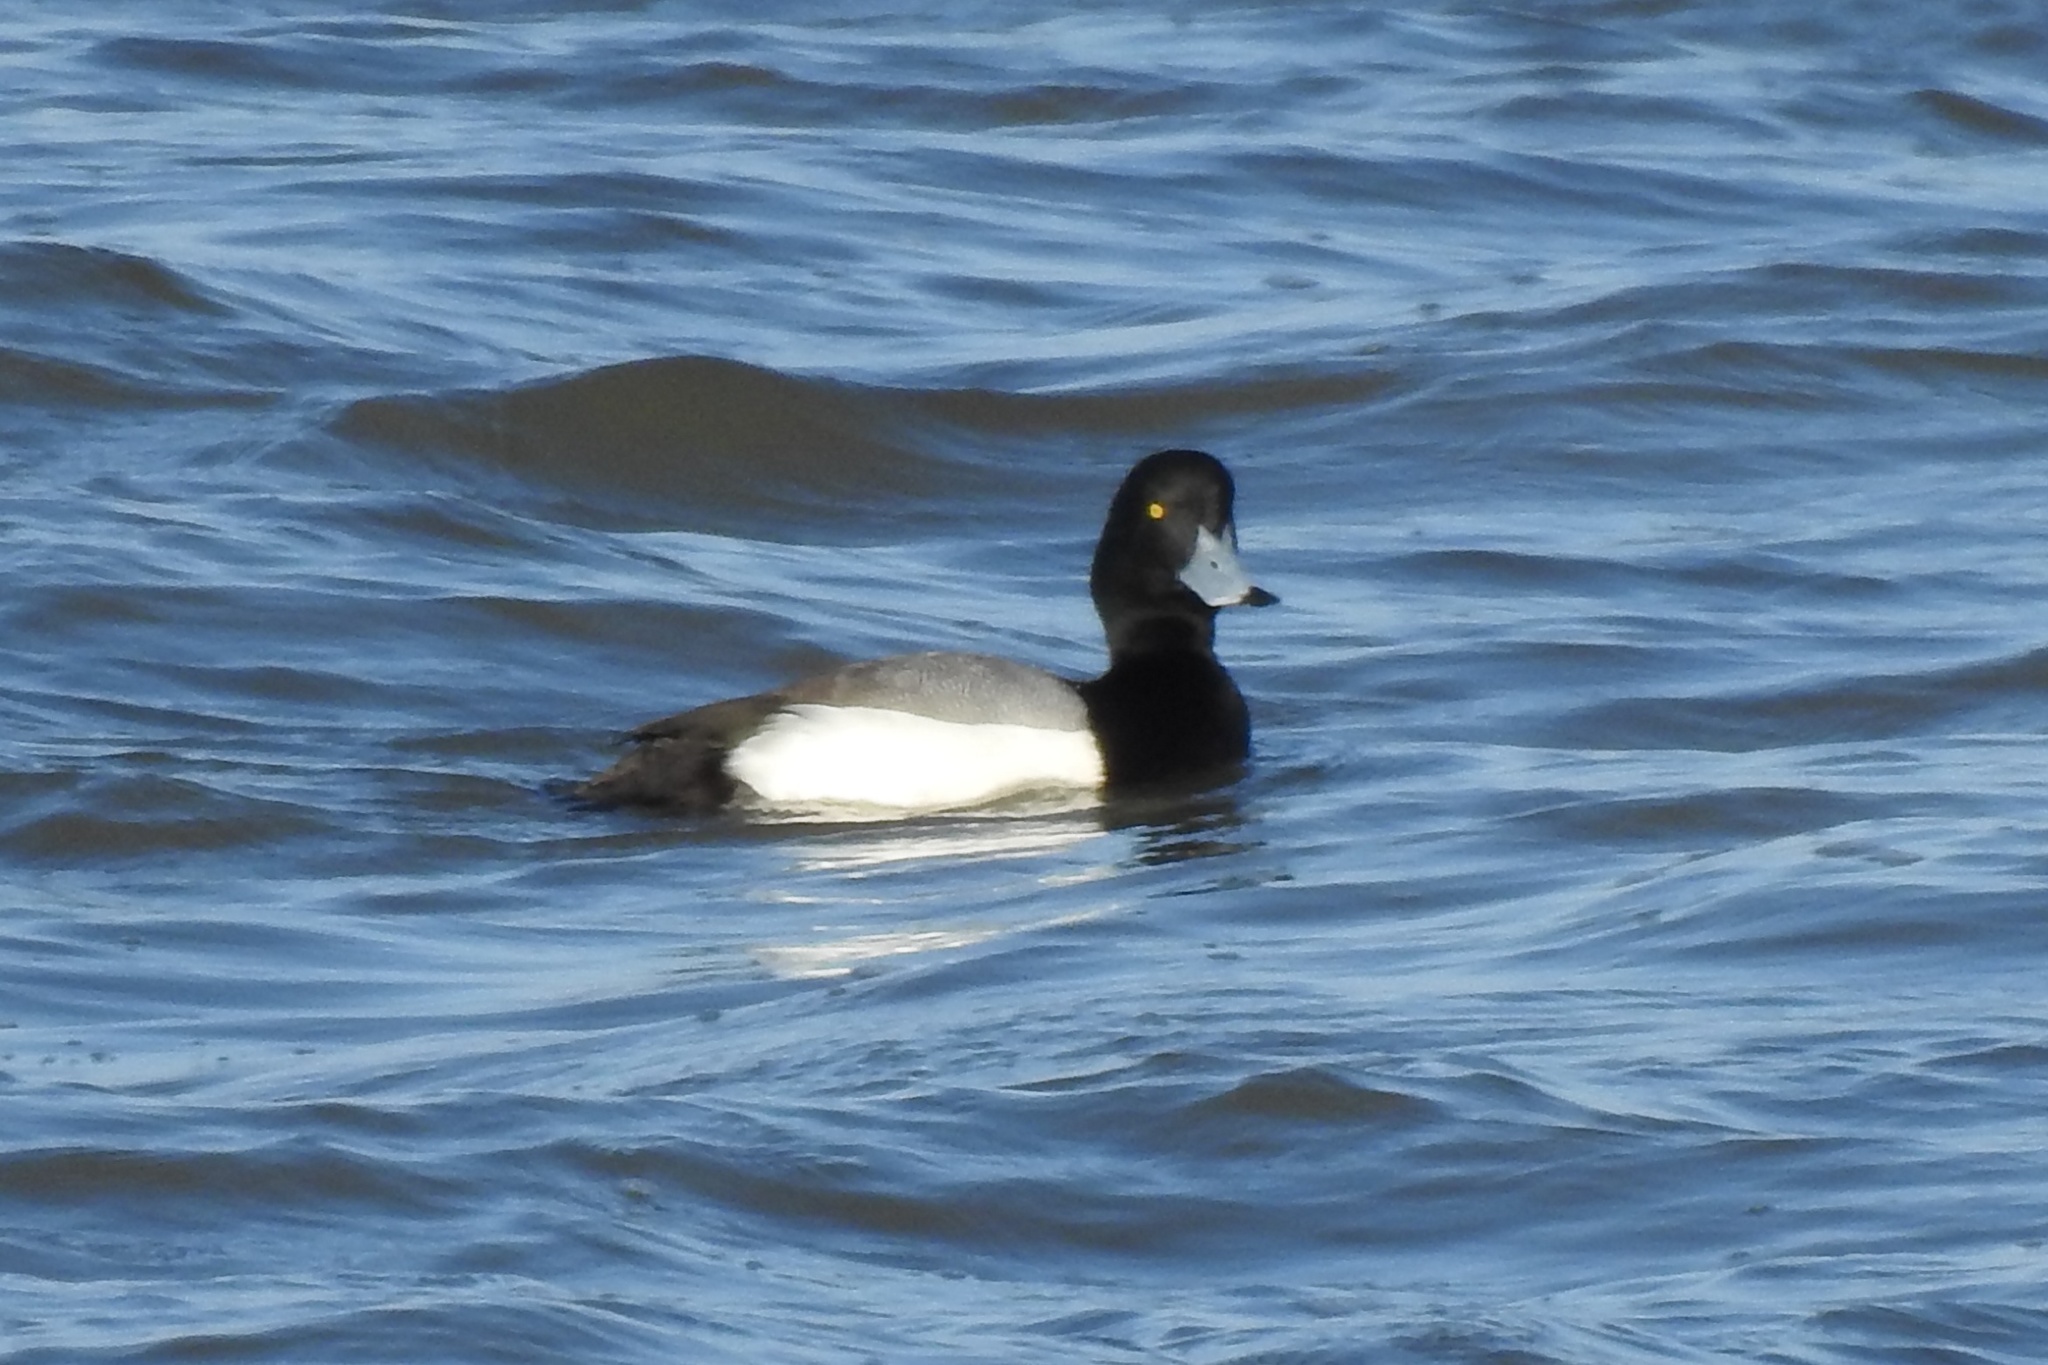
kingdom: Animalia
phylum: Chordata
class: Aves
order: Anseriformes
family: Anatidae
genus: Aythya
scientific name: Aythya marila
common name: Greater scaup
